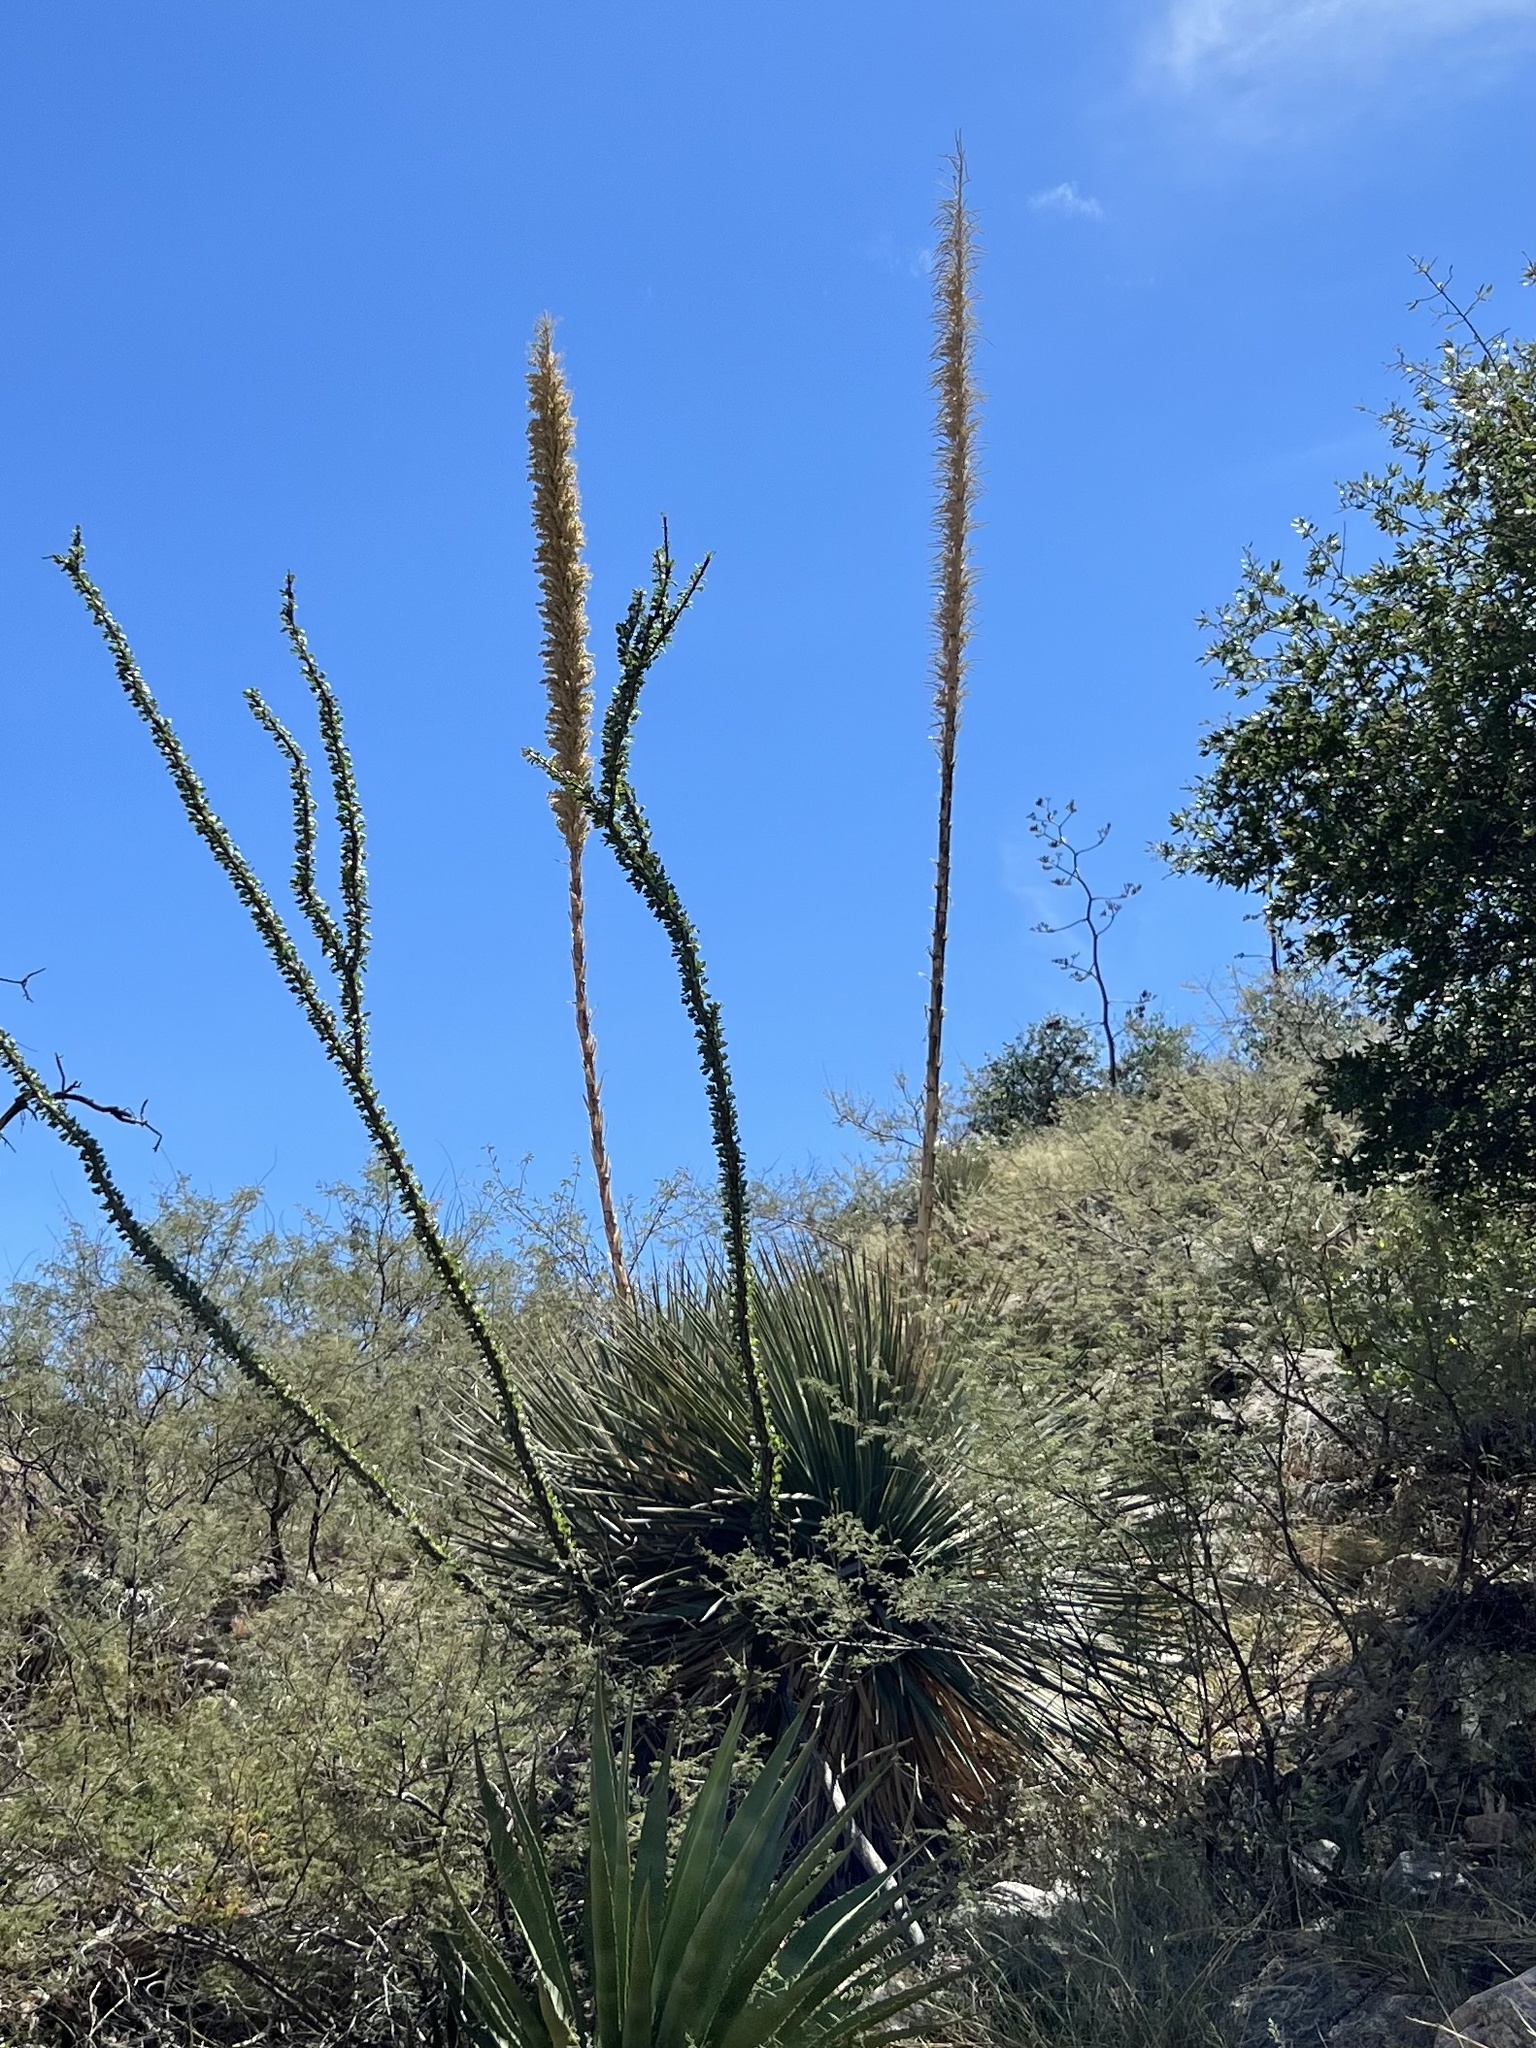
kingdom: Plantae
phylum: Tracheophyta
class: Liliopsida
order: Asparagales
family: Asparagaceae
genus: Dasylirion
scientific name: Dasylirion wheeleri
